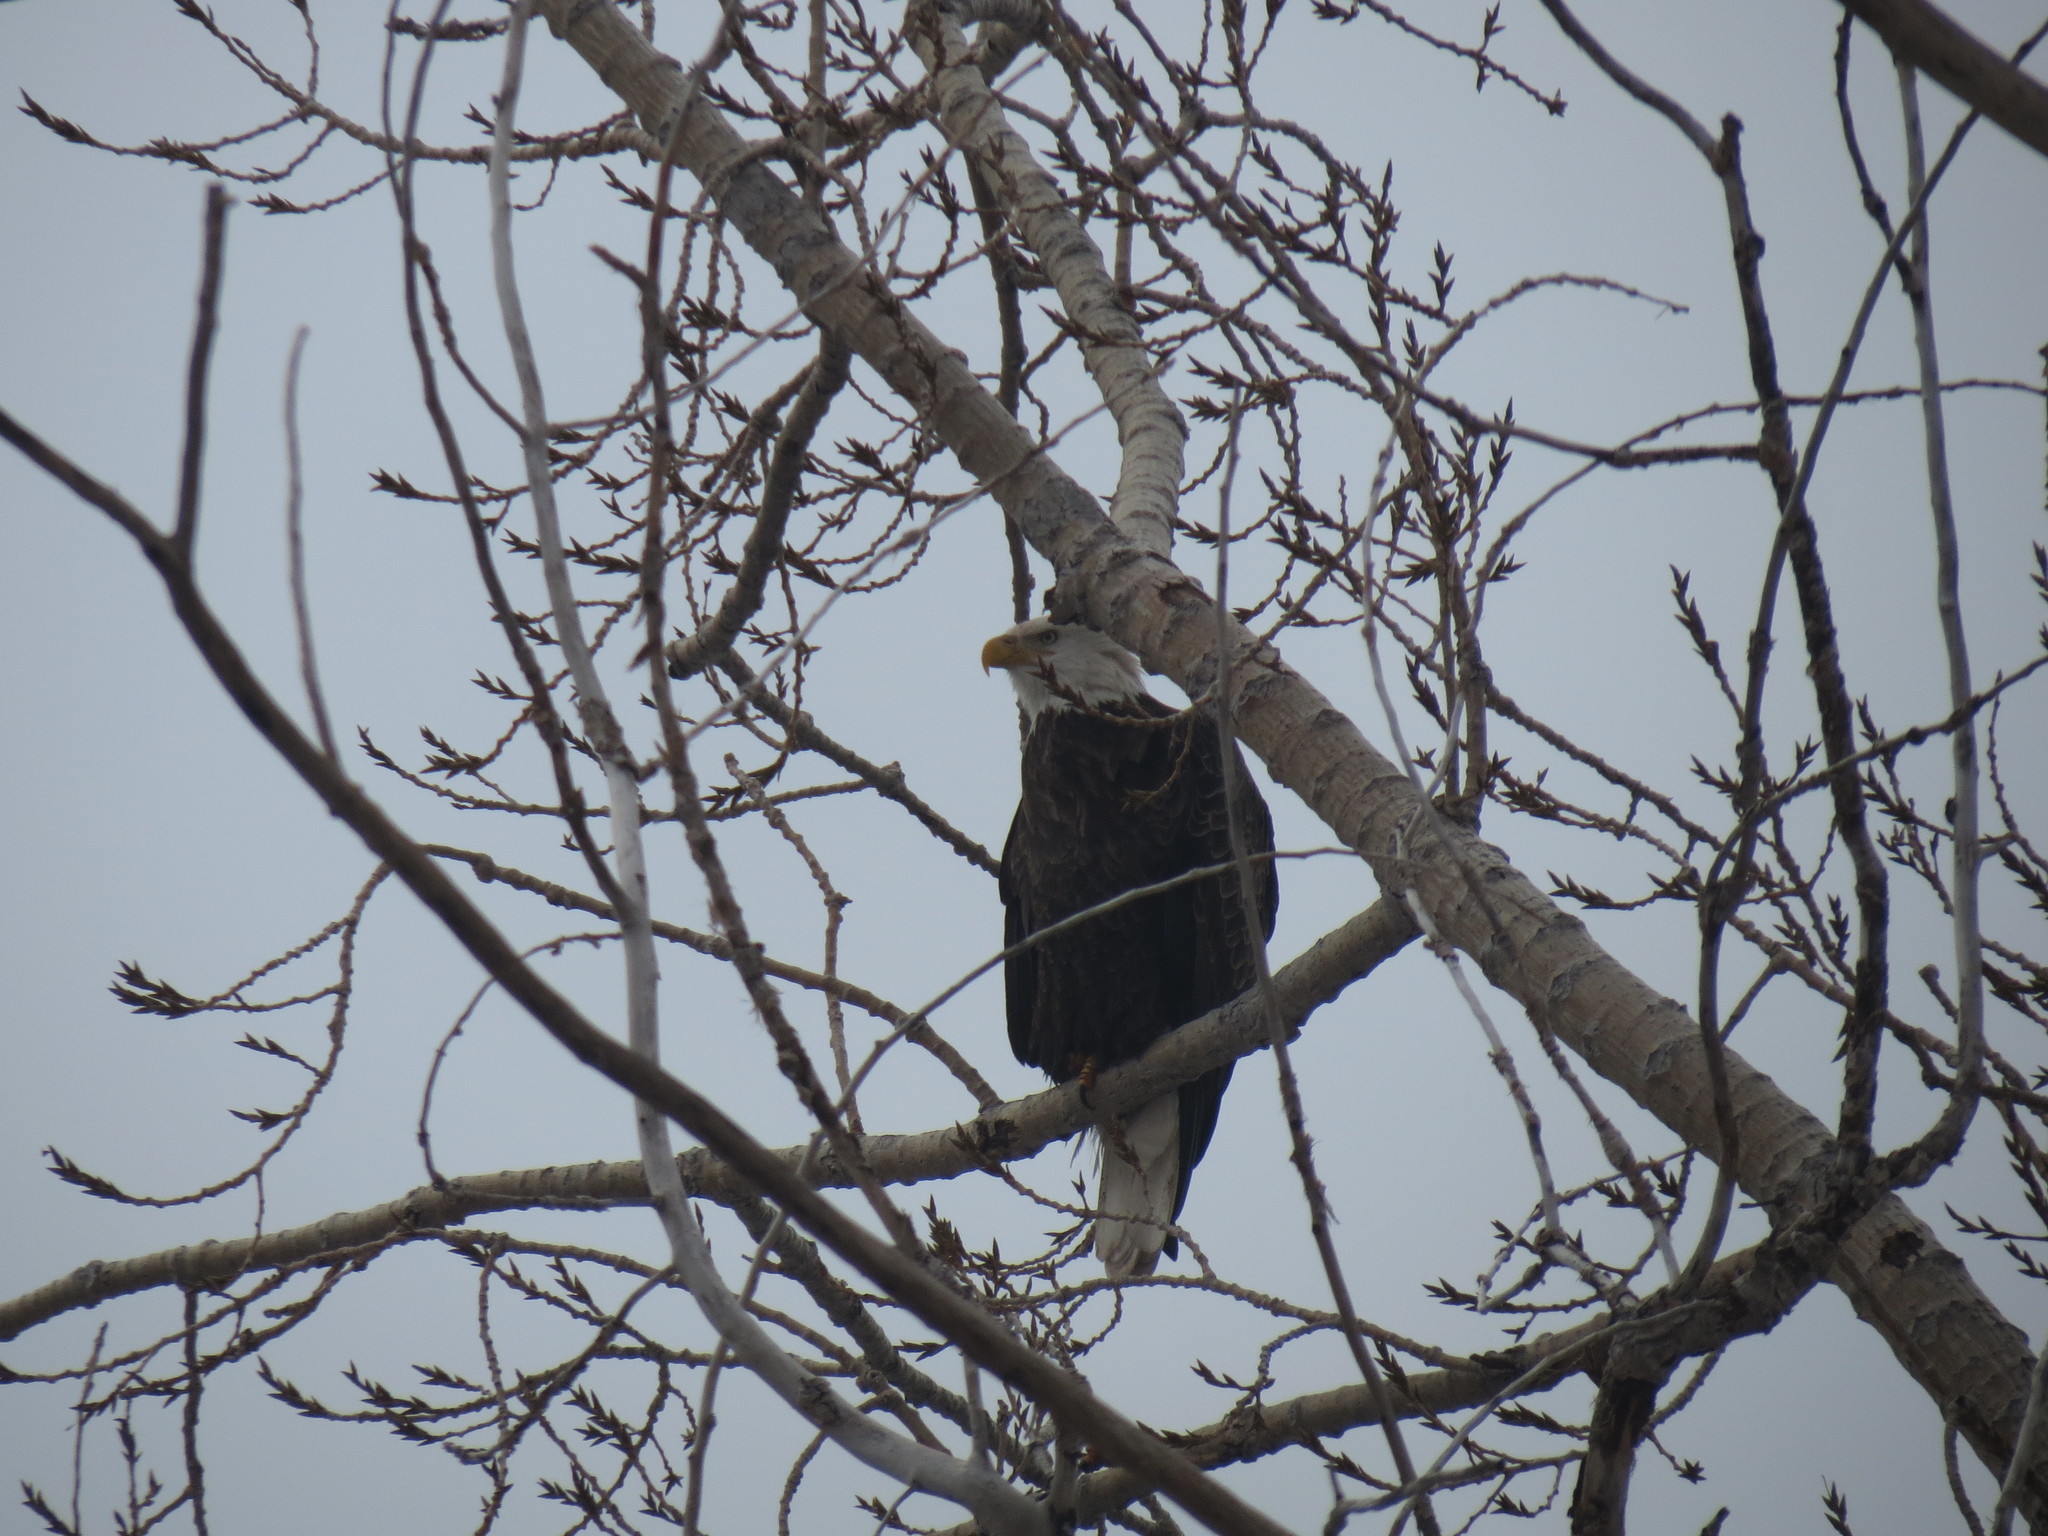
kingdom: Animalia
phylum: Chordata
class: Aves
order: Accipitriformes
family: Accipitridae
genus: Haliaeetus
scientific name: Haliaeetus leucocephalus
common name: Bald eagle
